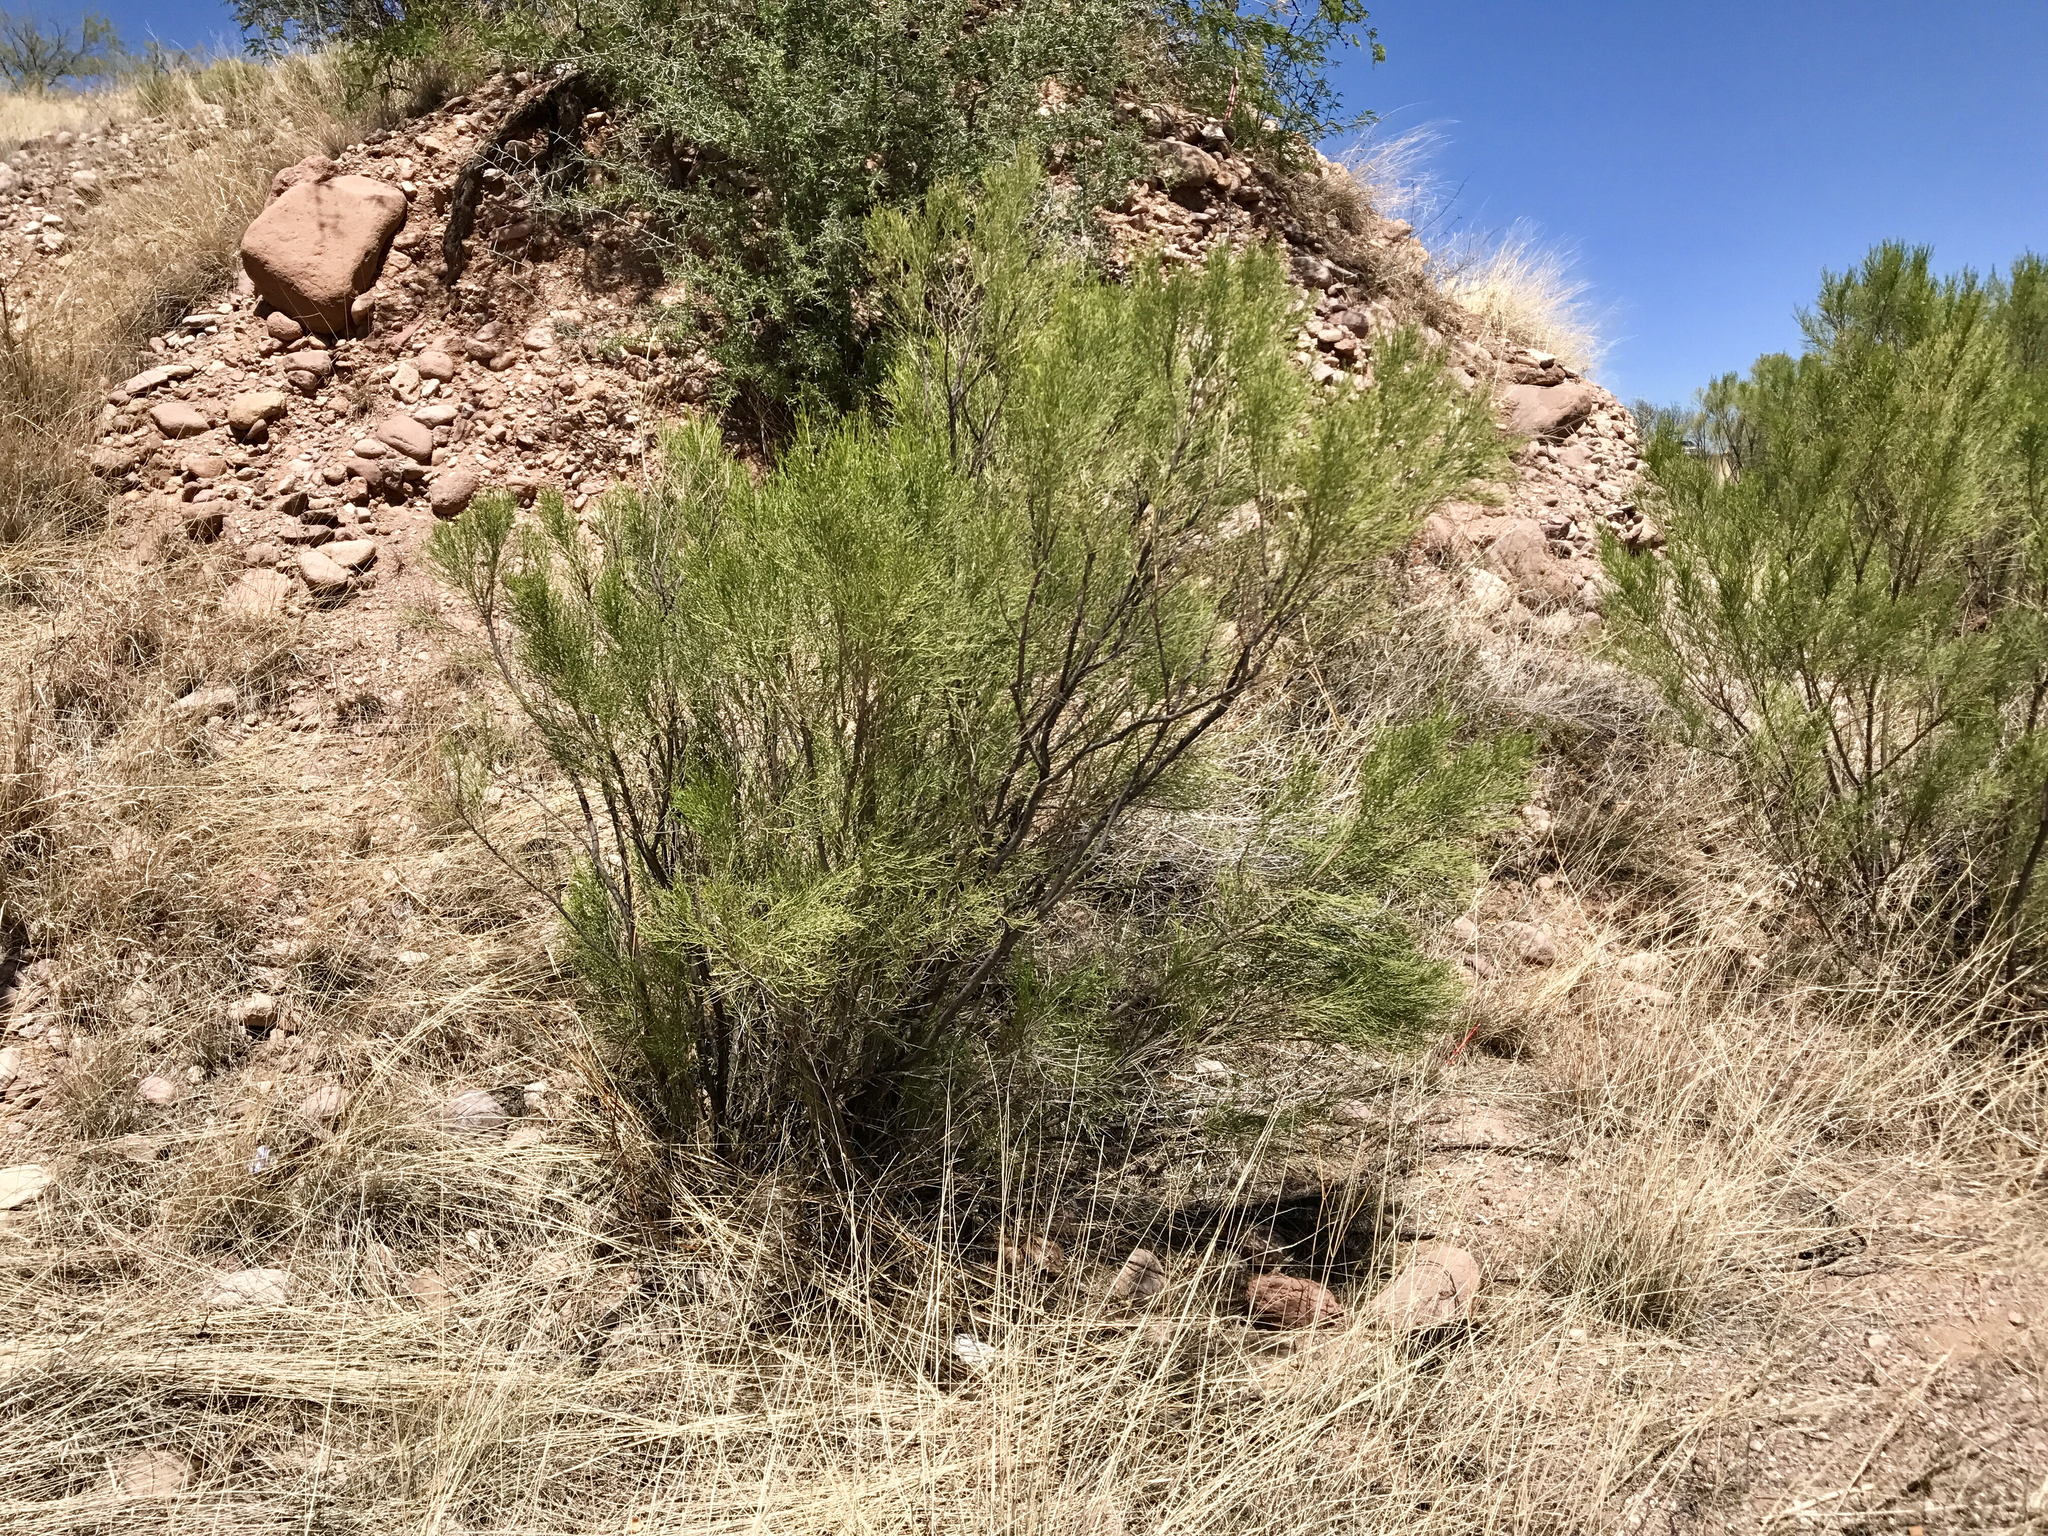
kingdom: Plantae
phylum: Tracheophyta
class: Magnoliopsida
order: Asterales
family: Asteraceae
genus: Baccharis
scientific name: Baccharis sarothroides
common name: Desert-broom
